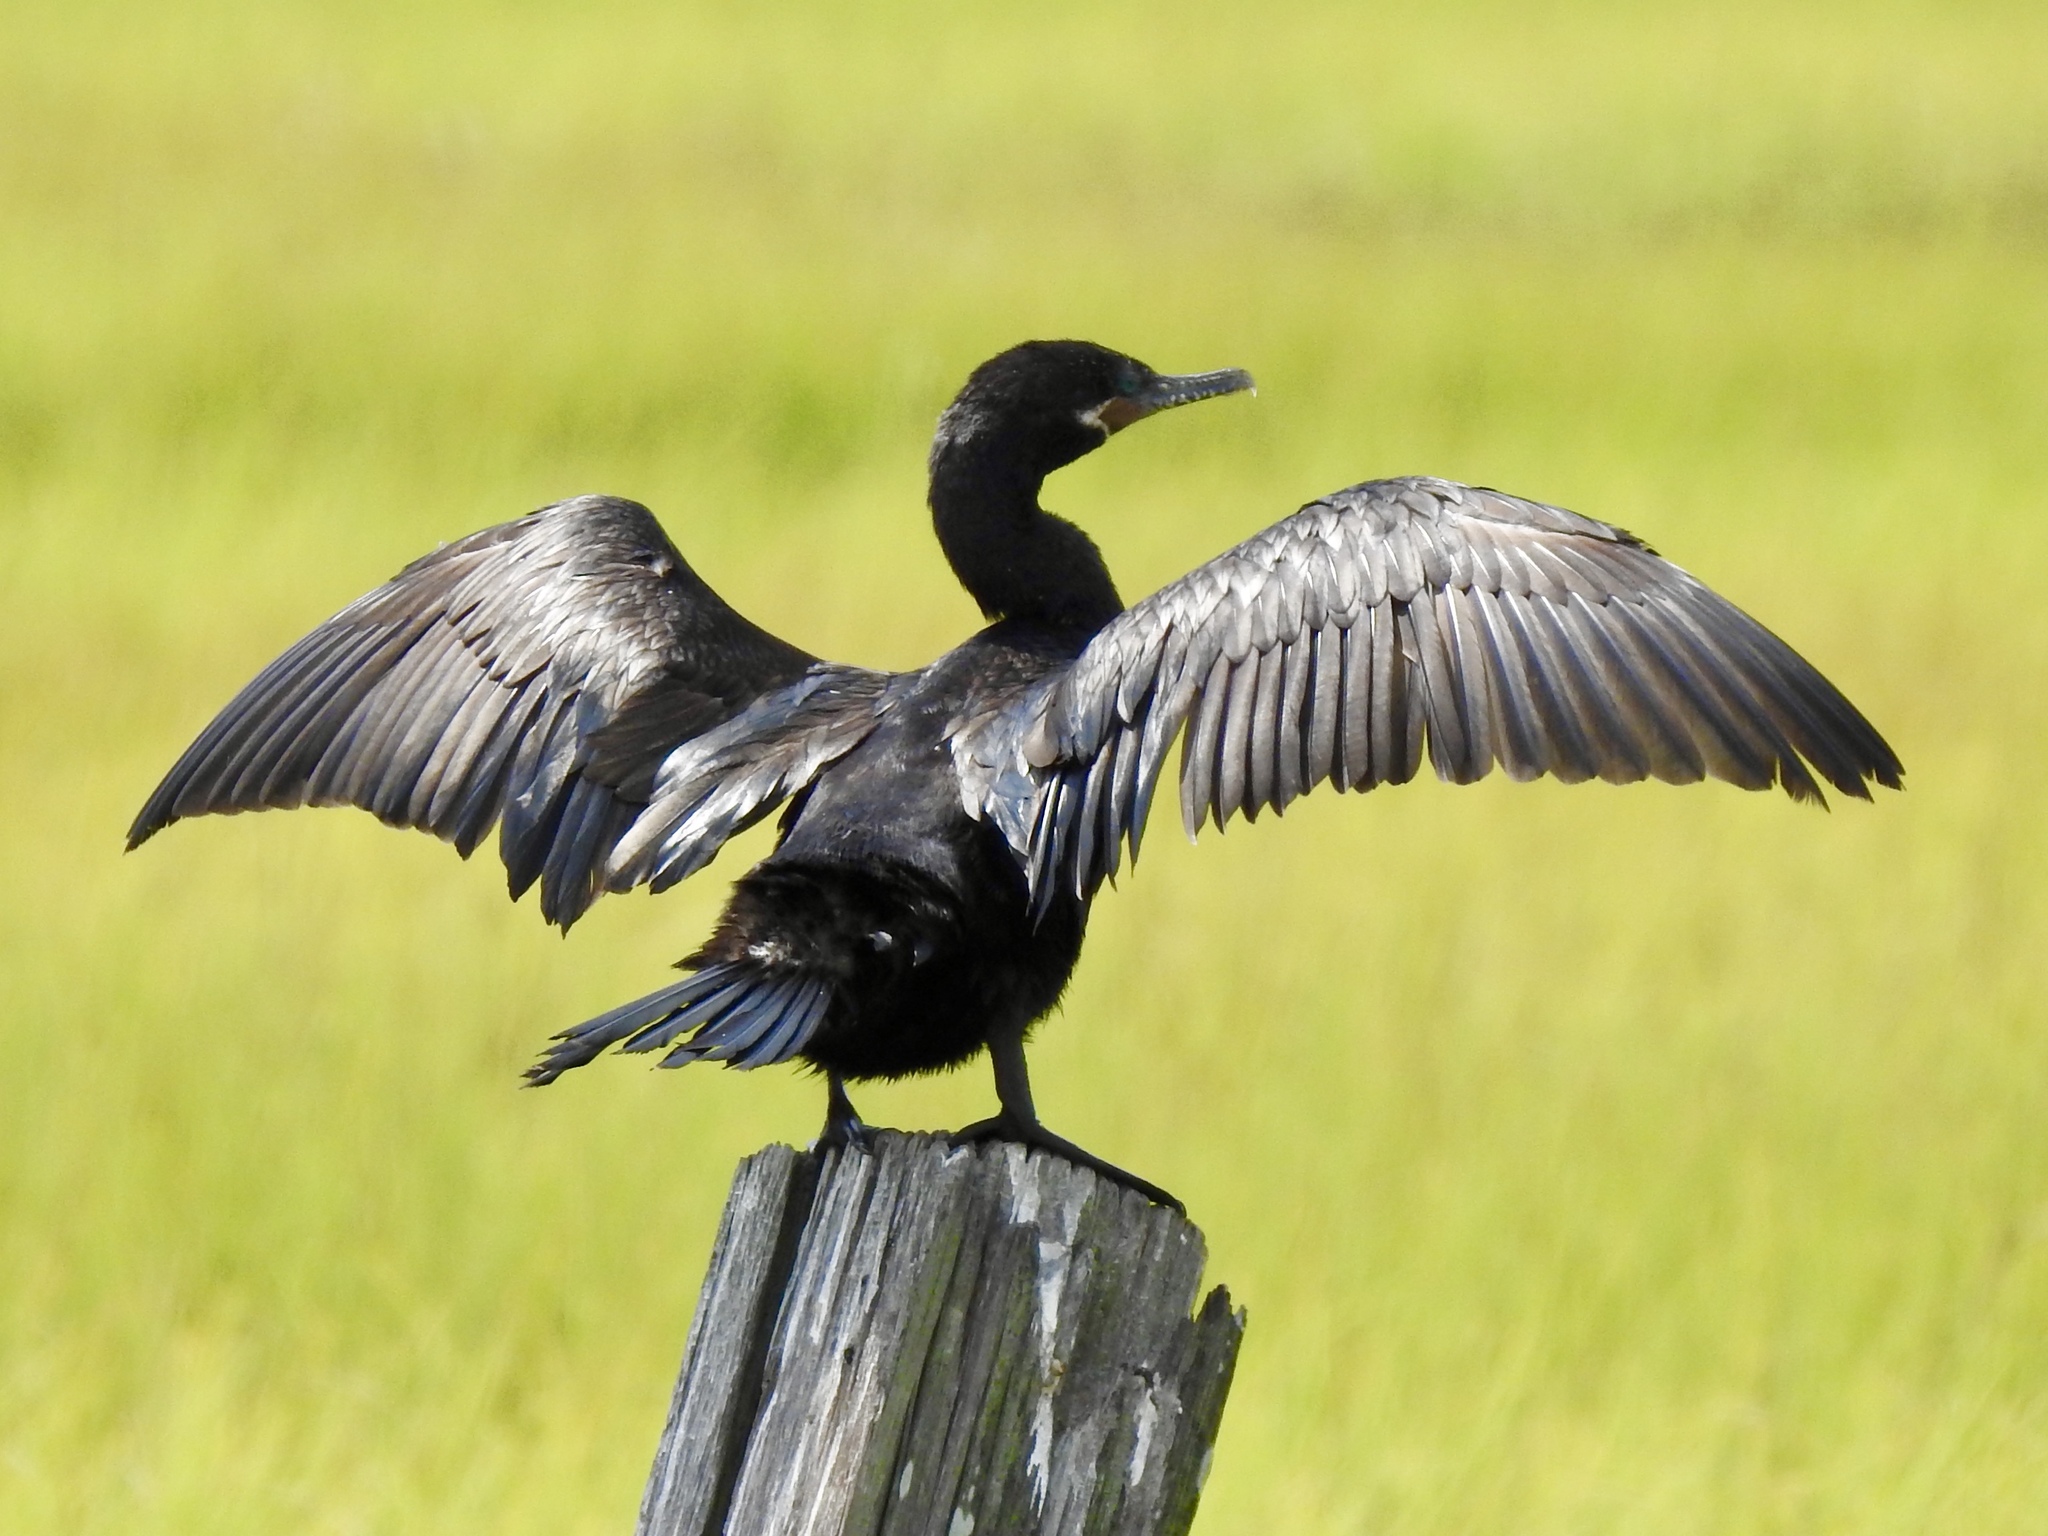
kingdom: Animalia
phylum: Chordata
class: Aves
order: Suliformes
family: Phalacrocoracidae
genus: Phalacrocorax
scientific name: Phalacrocorax brasilianus
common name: Neotropic cormorant
